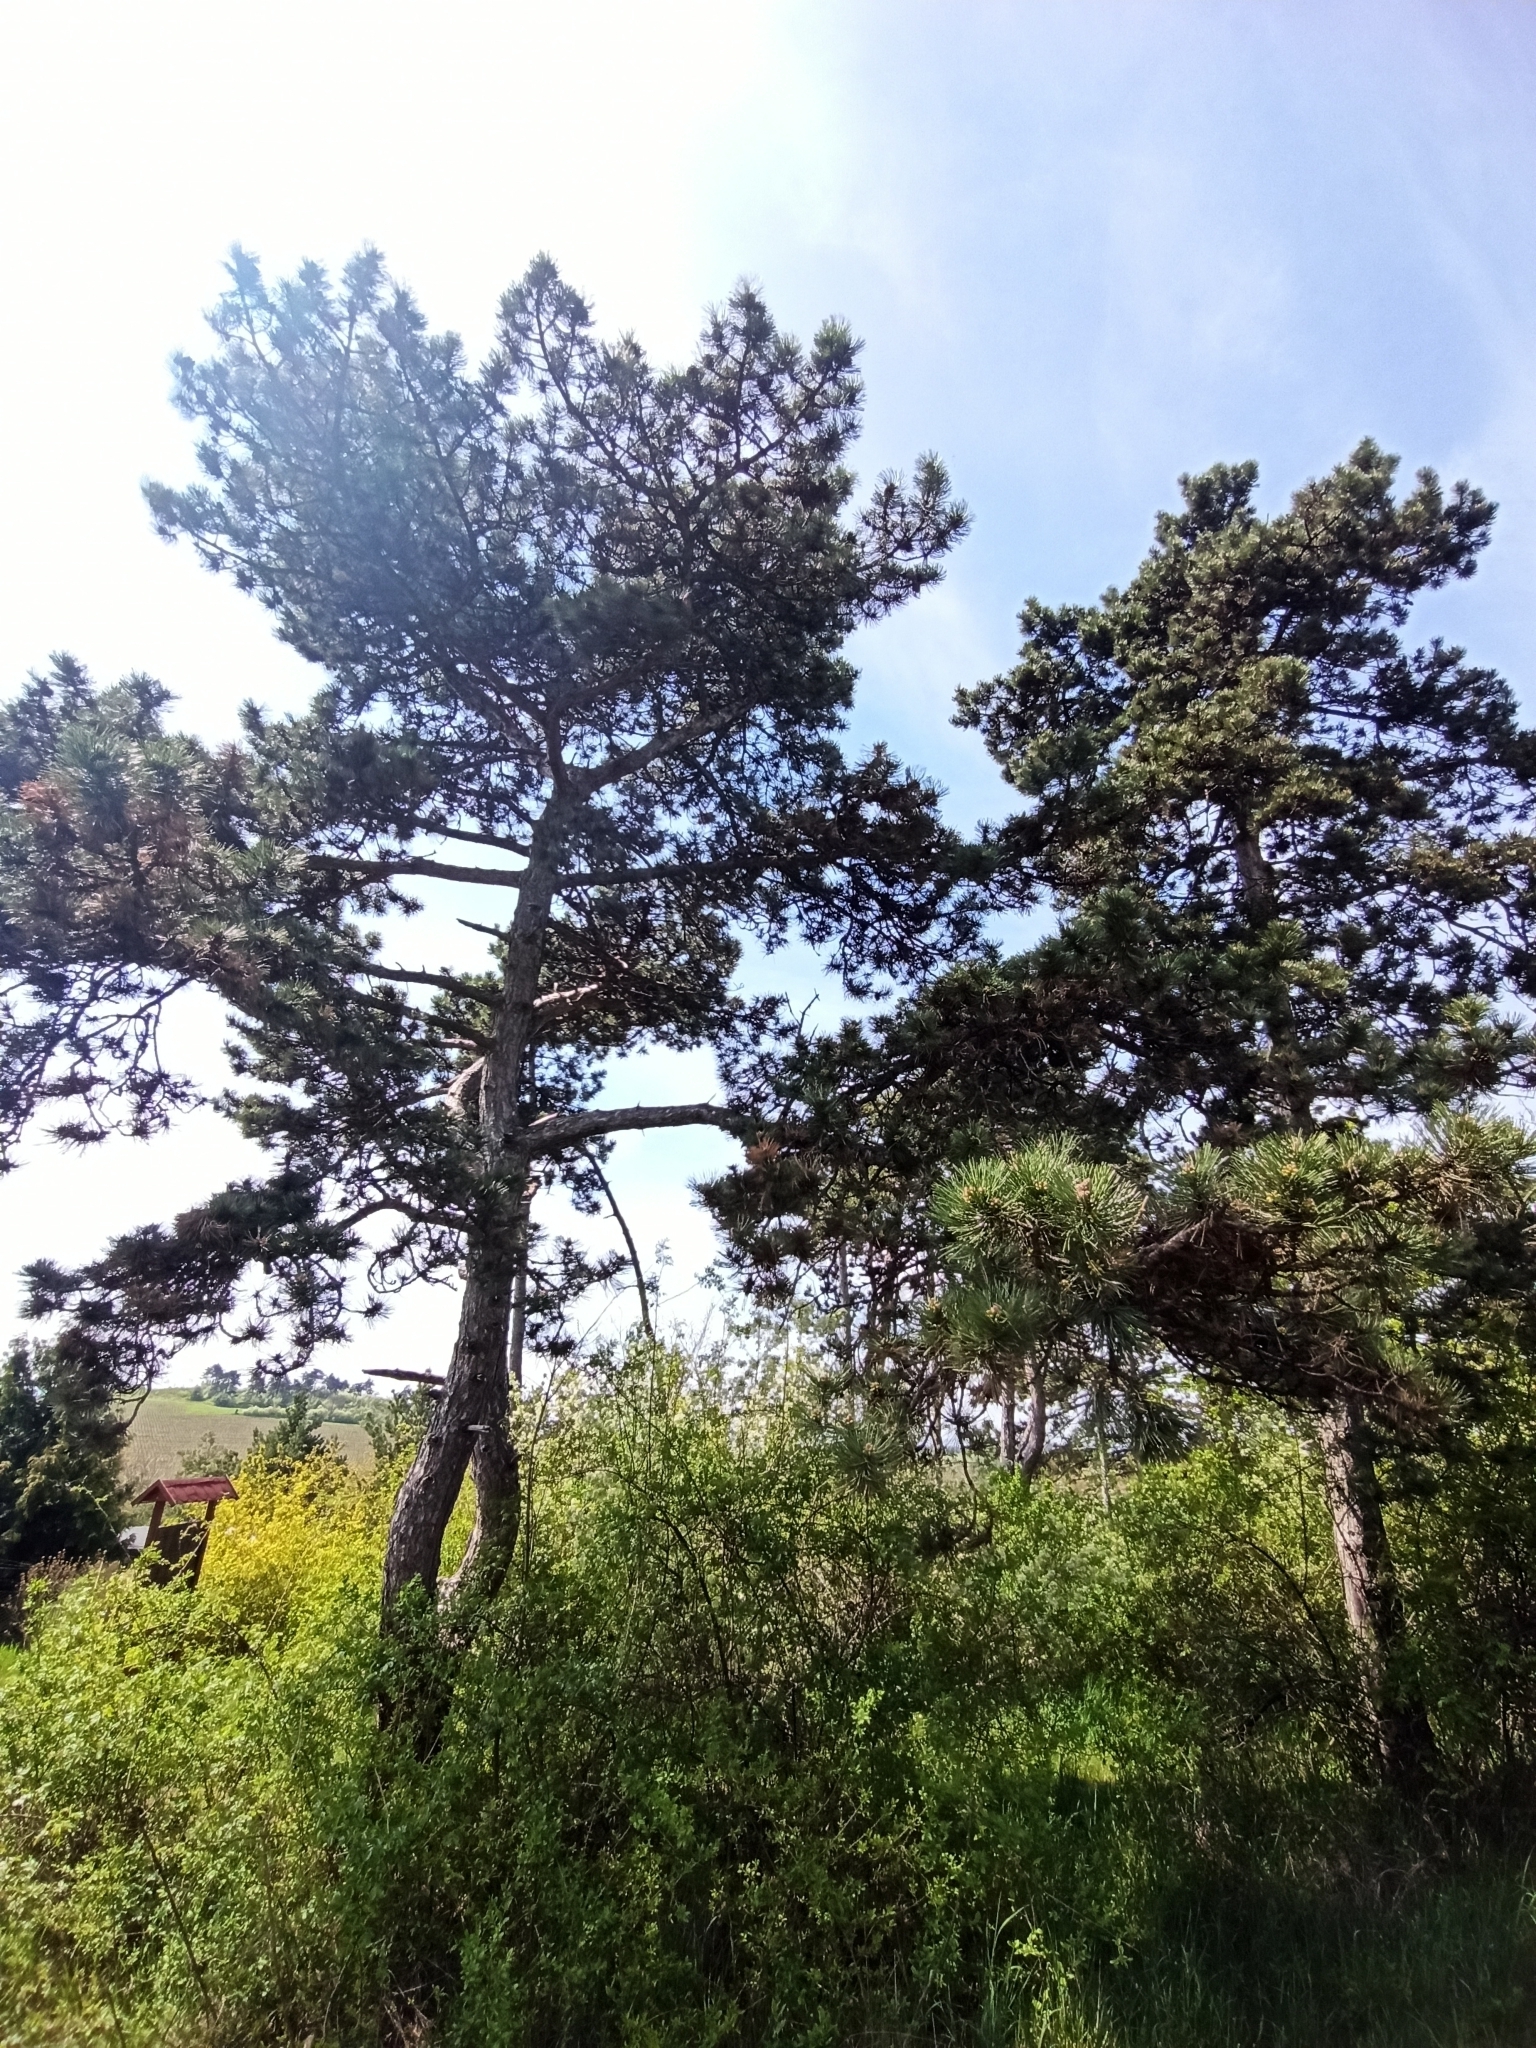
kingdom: Plantae
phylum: Tracheophyta
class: Pinopsida
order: Pinales
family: Pinaceae
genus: Pinus
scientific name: Pinus nigra
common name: Austrian pine
